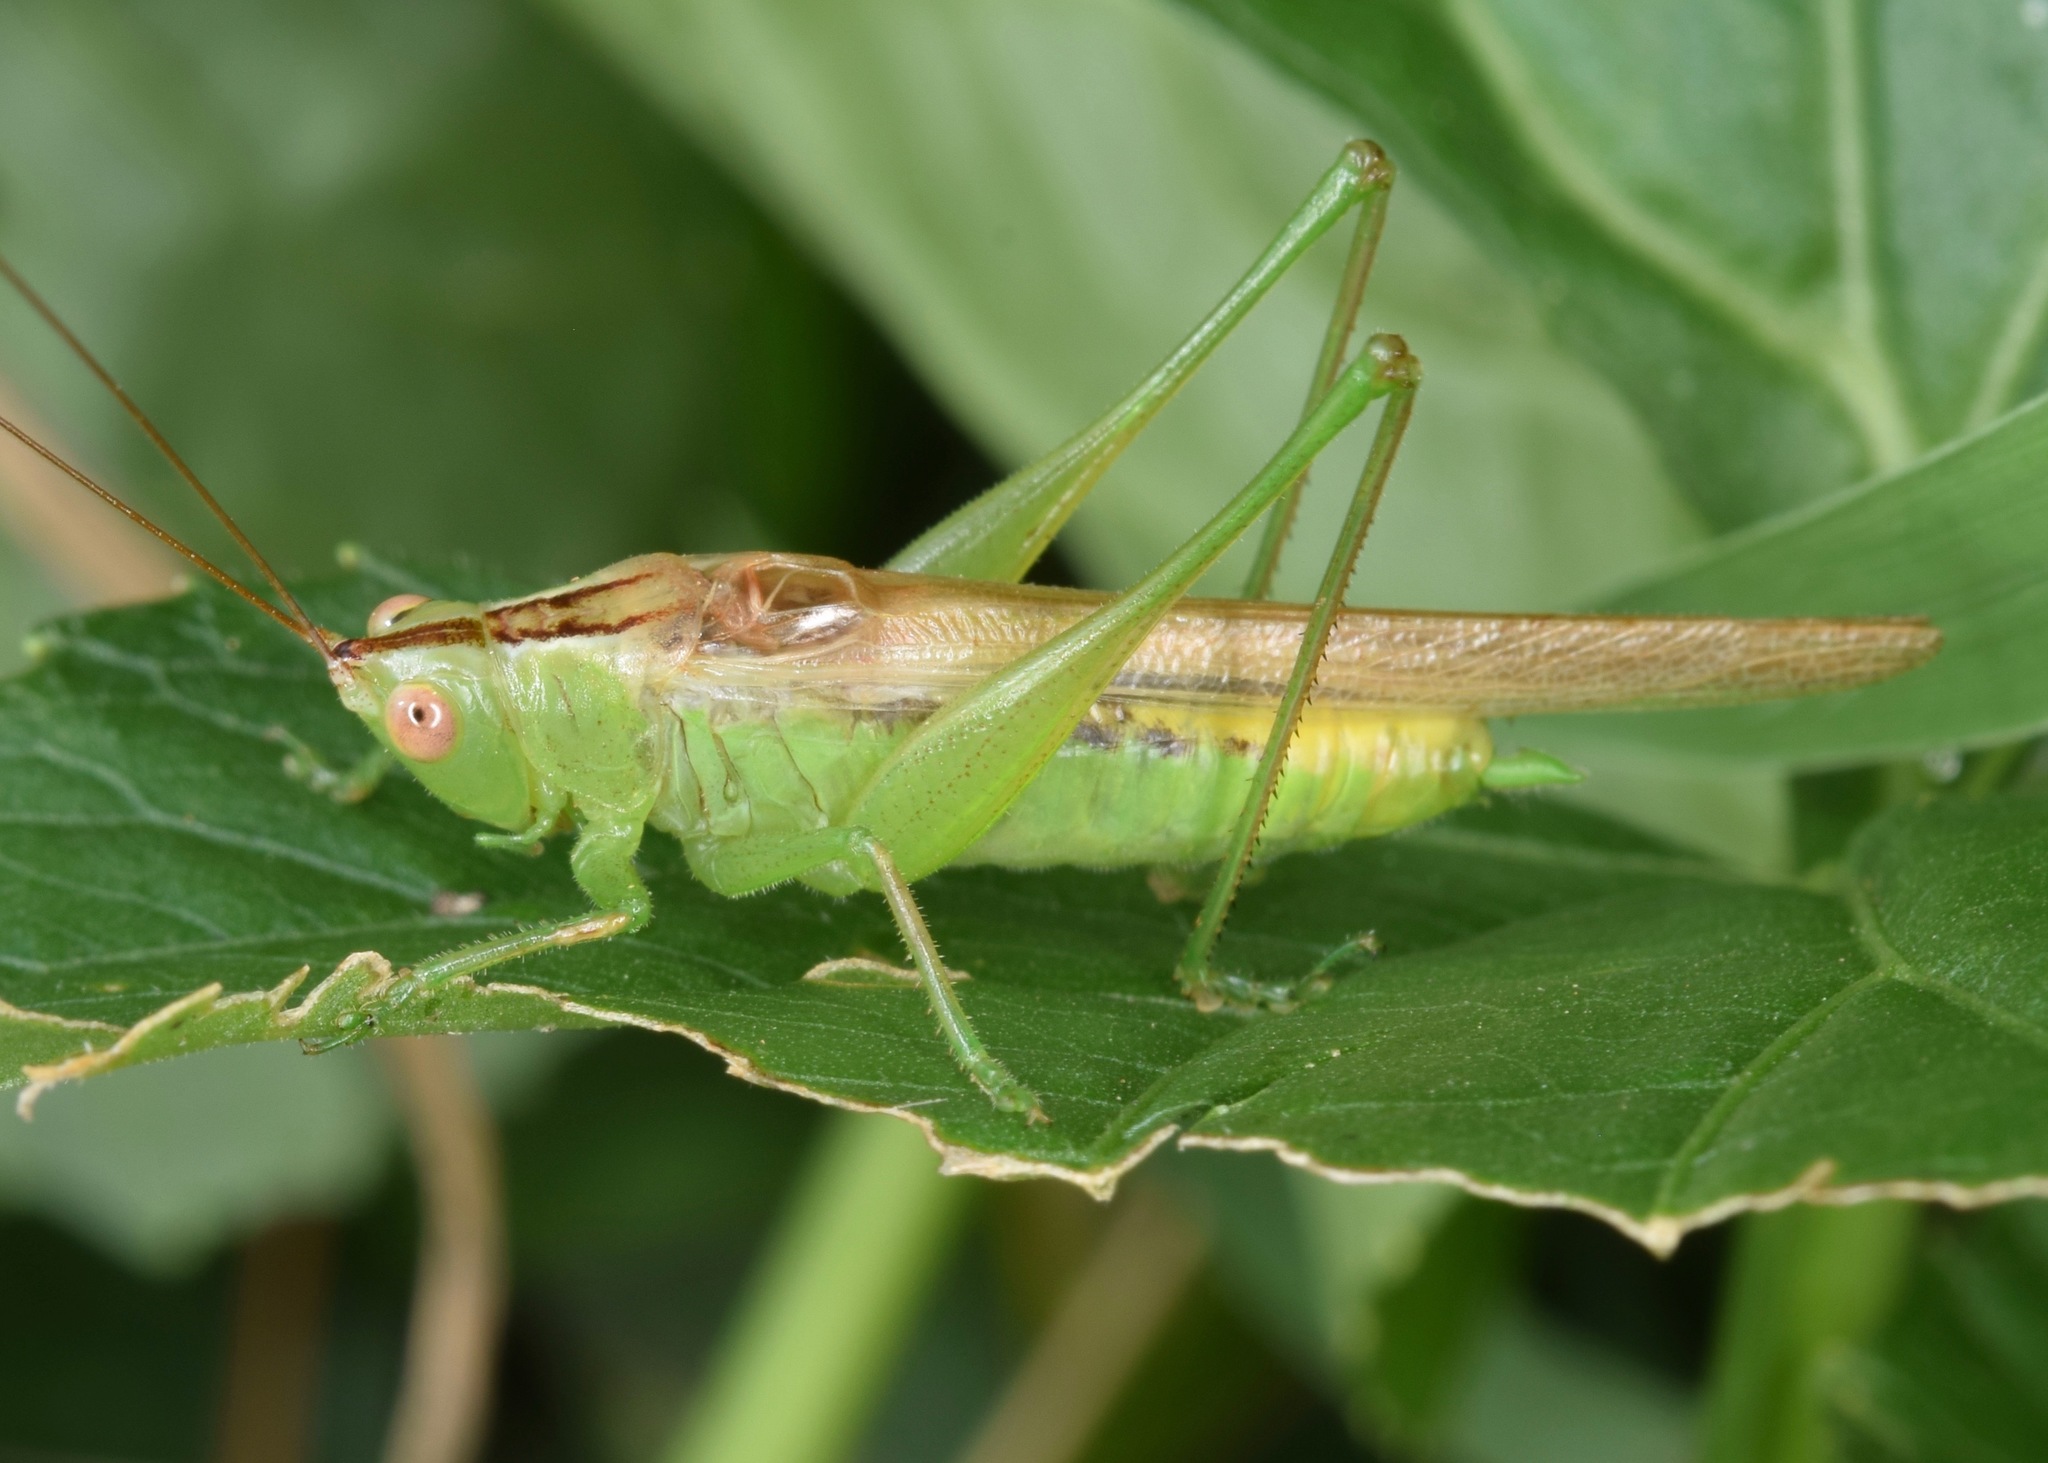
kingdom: Animalia
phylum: Arthropoda
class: Insecta
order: Orthoptera
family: Tettigoniidae
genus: Conocephalus
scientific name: Conocephalus fasciatus
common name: Slender meadow katydid
